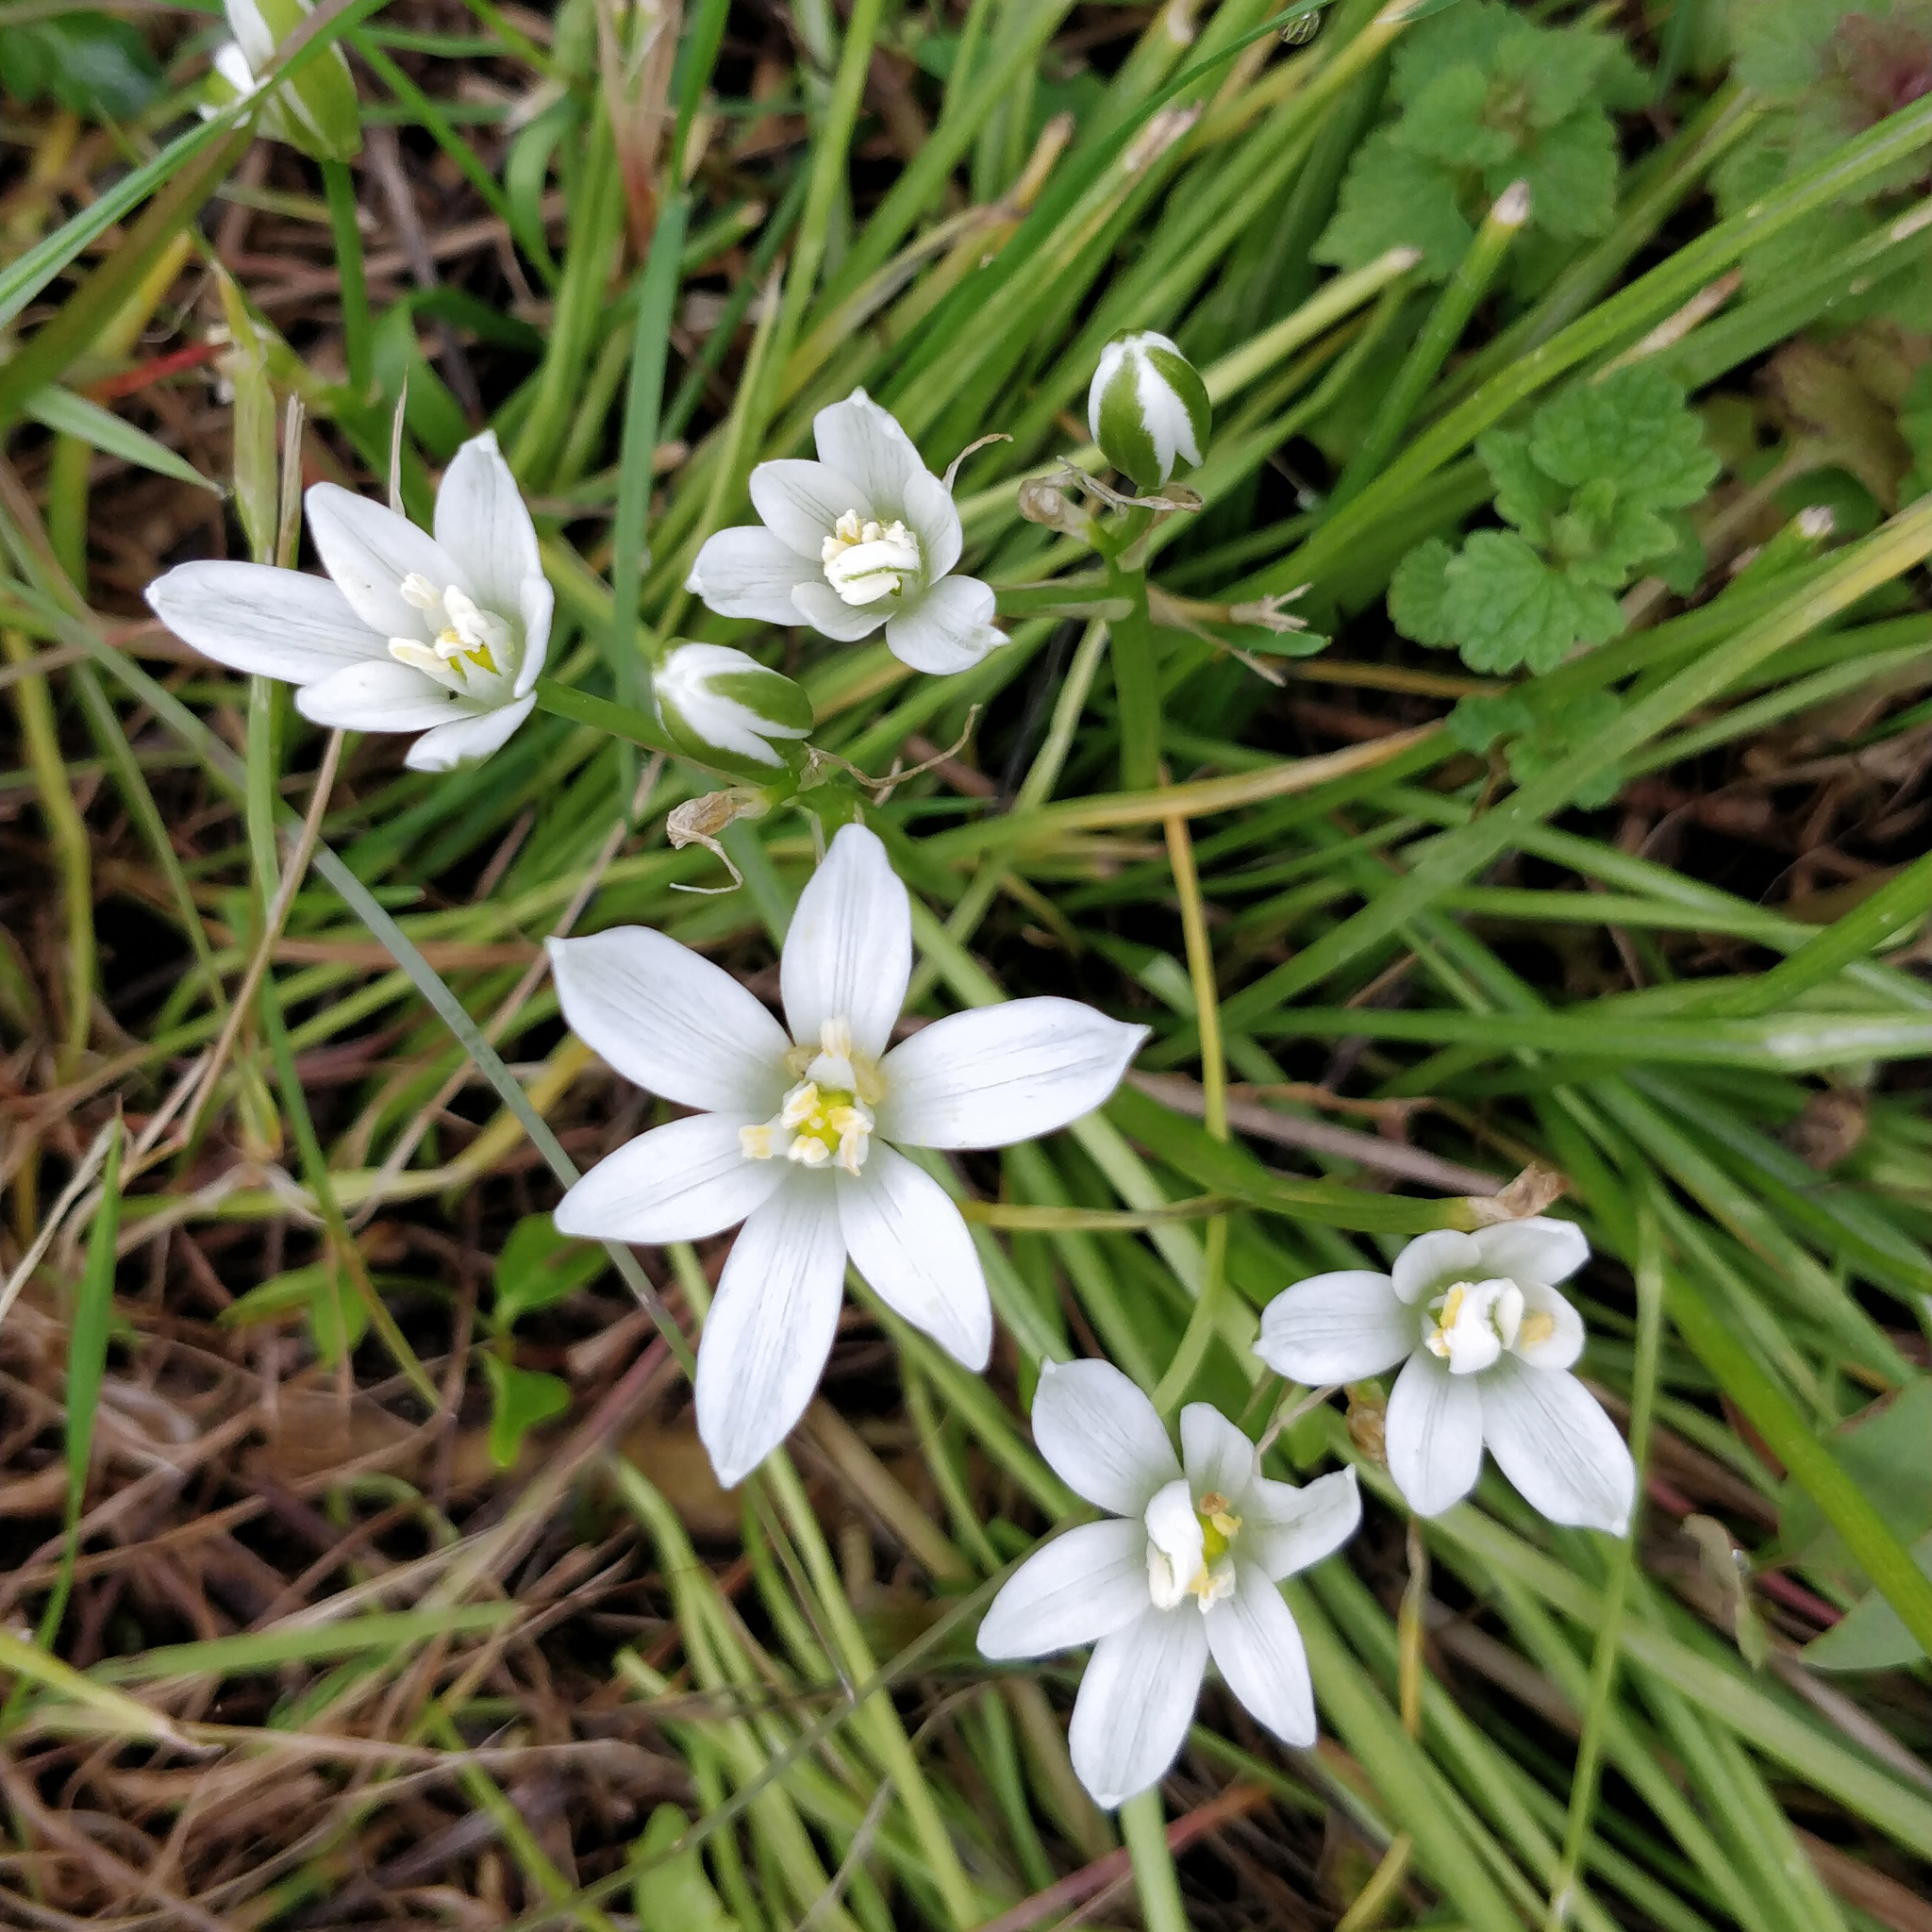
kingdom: Plantae
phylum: Tracheophyta
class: Liliopsida
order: Asparagales
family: Asparagaceae
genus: Ornithogalum
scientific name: Ornithogalum umbellatum
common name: Garden star-of-bethlehem
